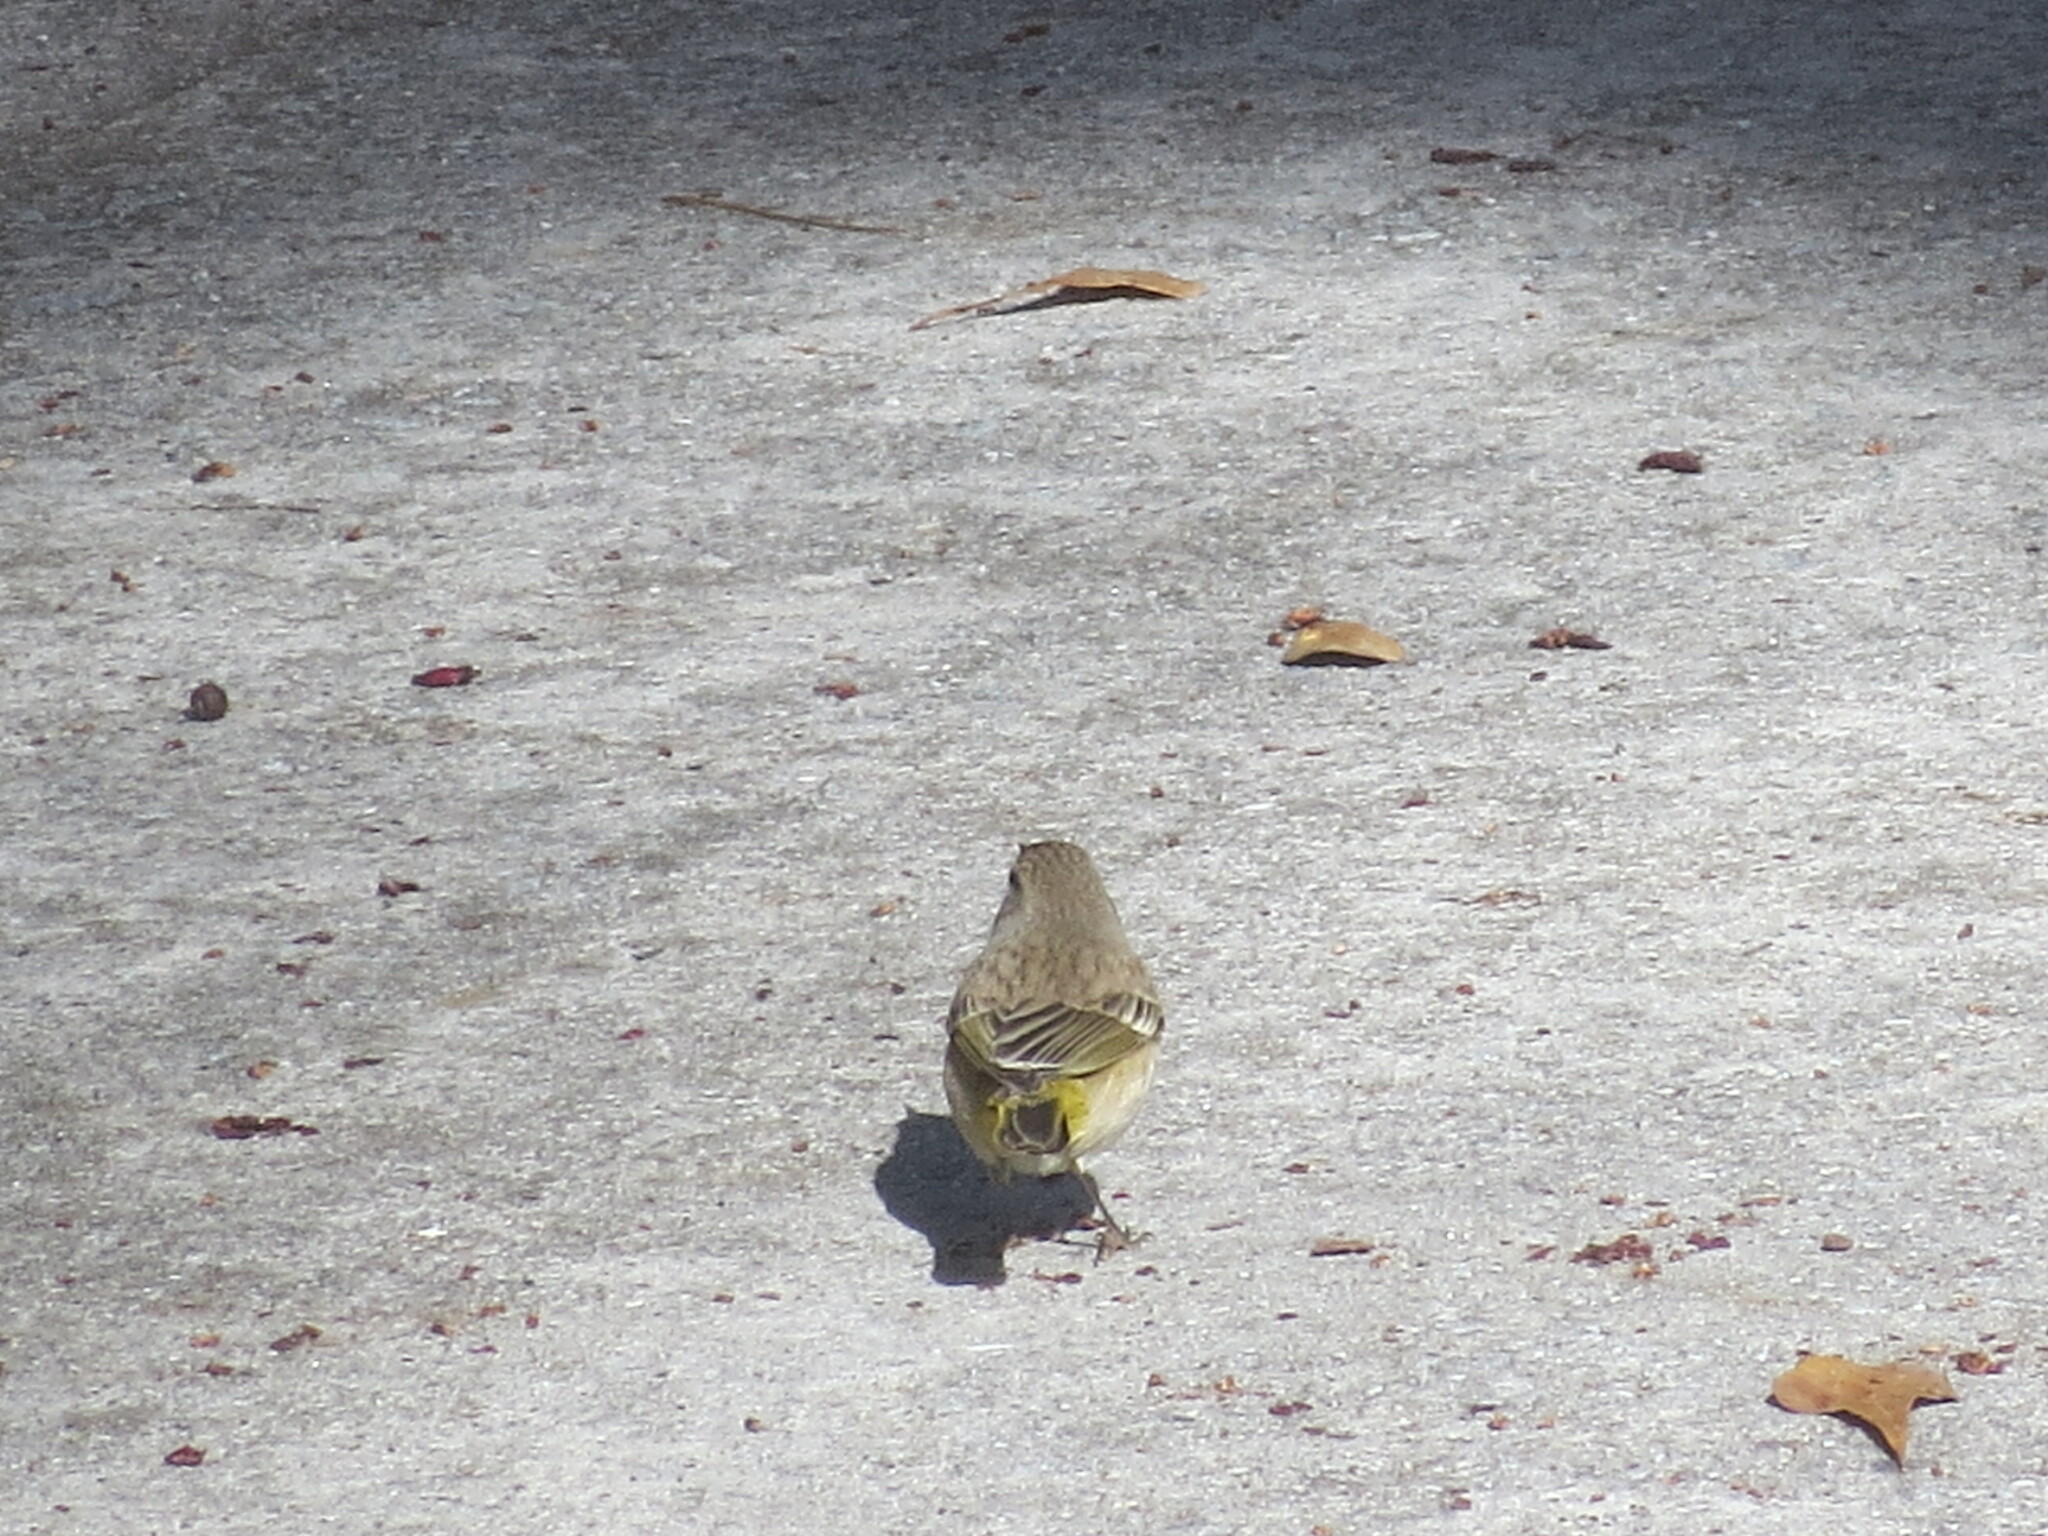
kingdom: Animalia
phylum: Chordata
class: Aves
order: Passeriformes
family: Parulidae
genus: Setophaga
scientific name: Setophaga palmarum
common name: Palm warbler
